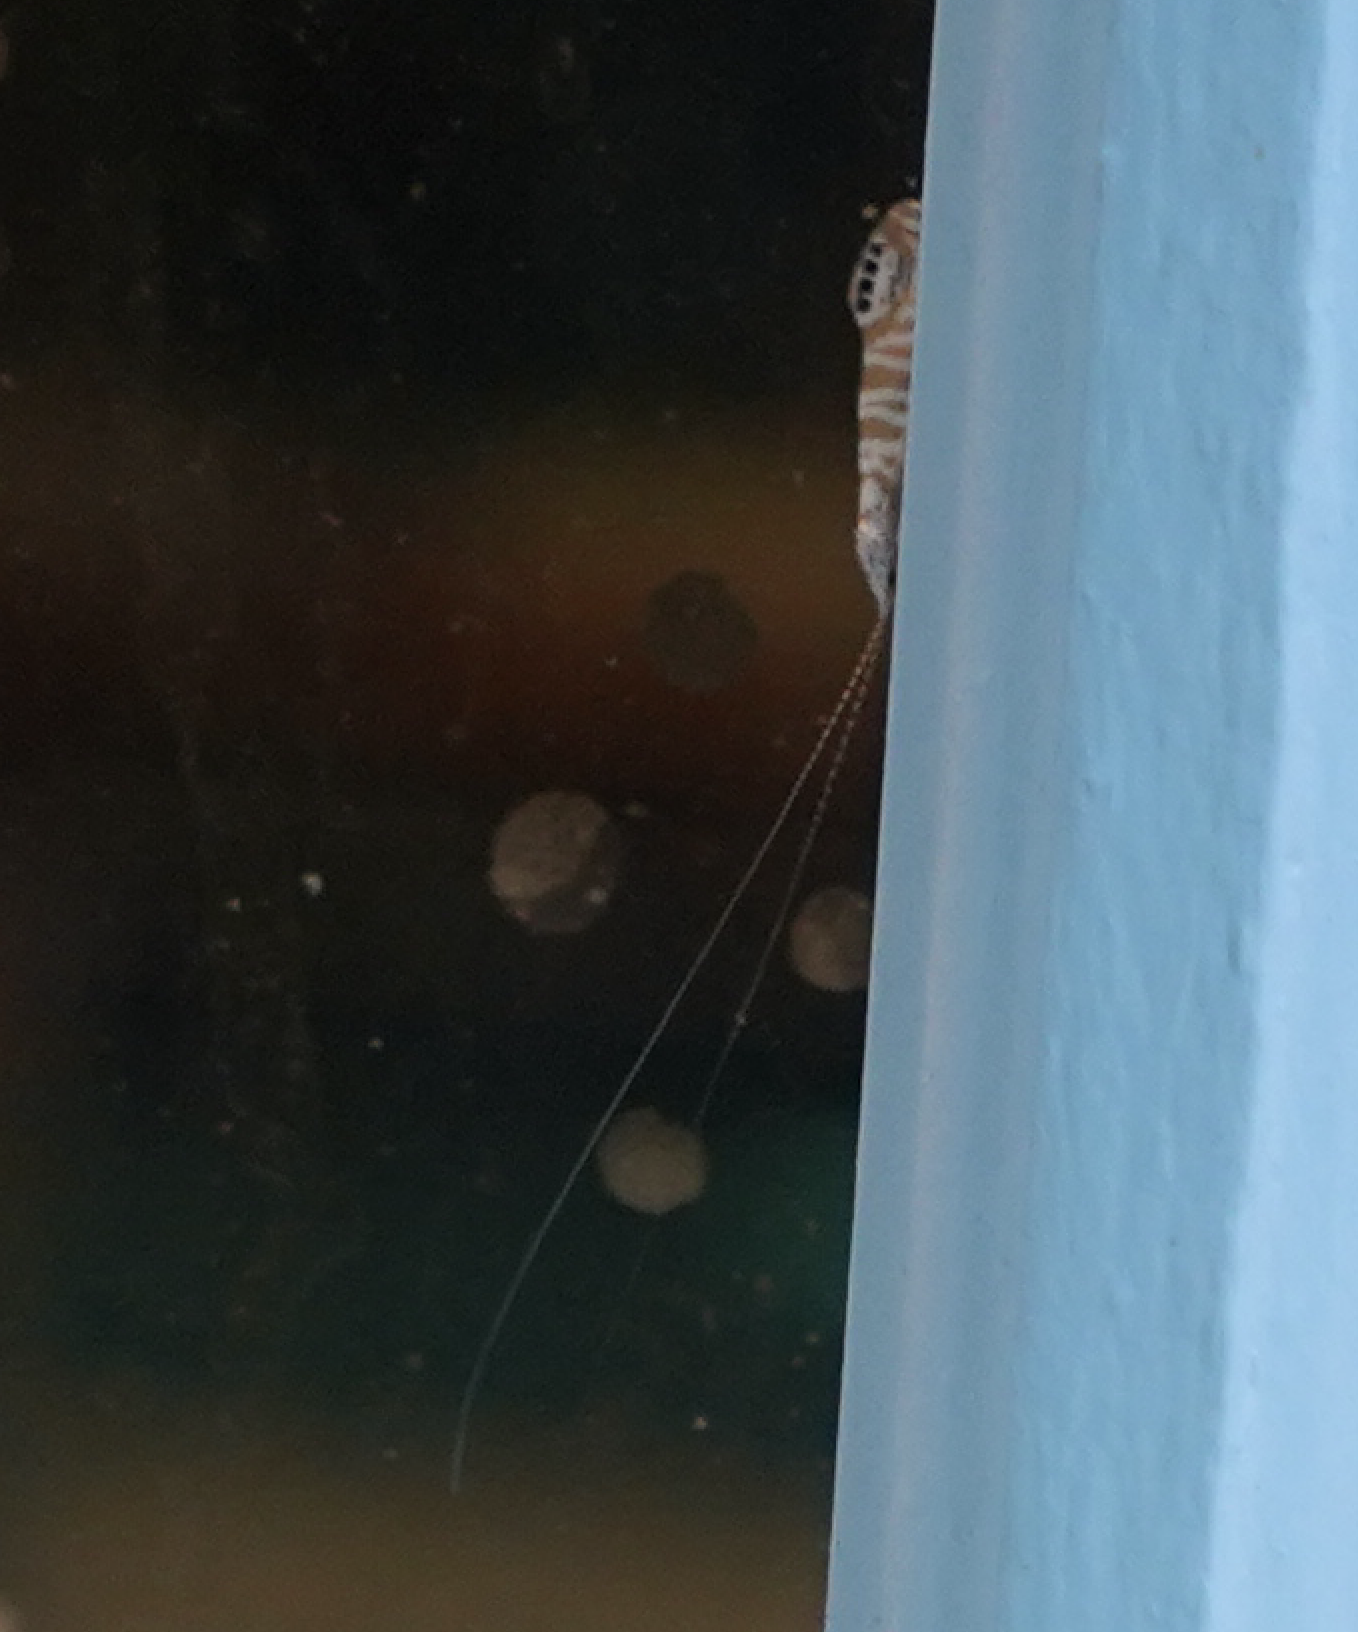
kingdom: Animalia
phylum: Arthropoda
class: Insecta
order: Trichoptera
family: Leptoceridae
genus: Nectopsyche
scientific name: Nectopsyche exquisita
